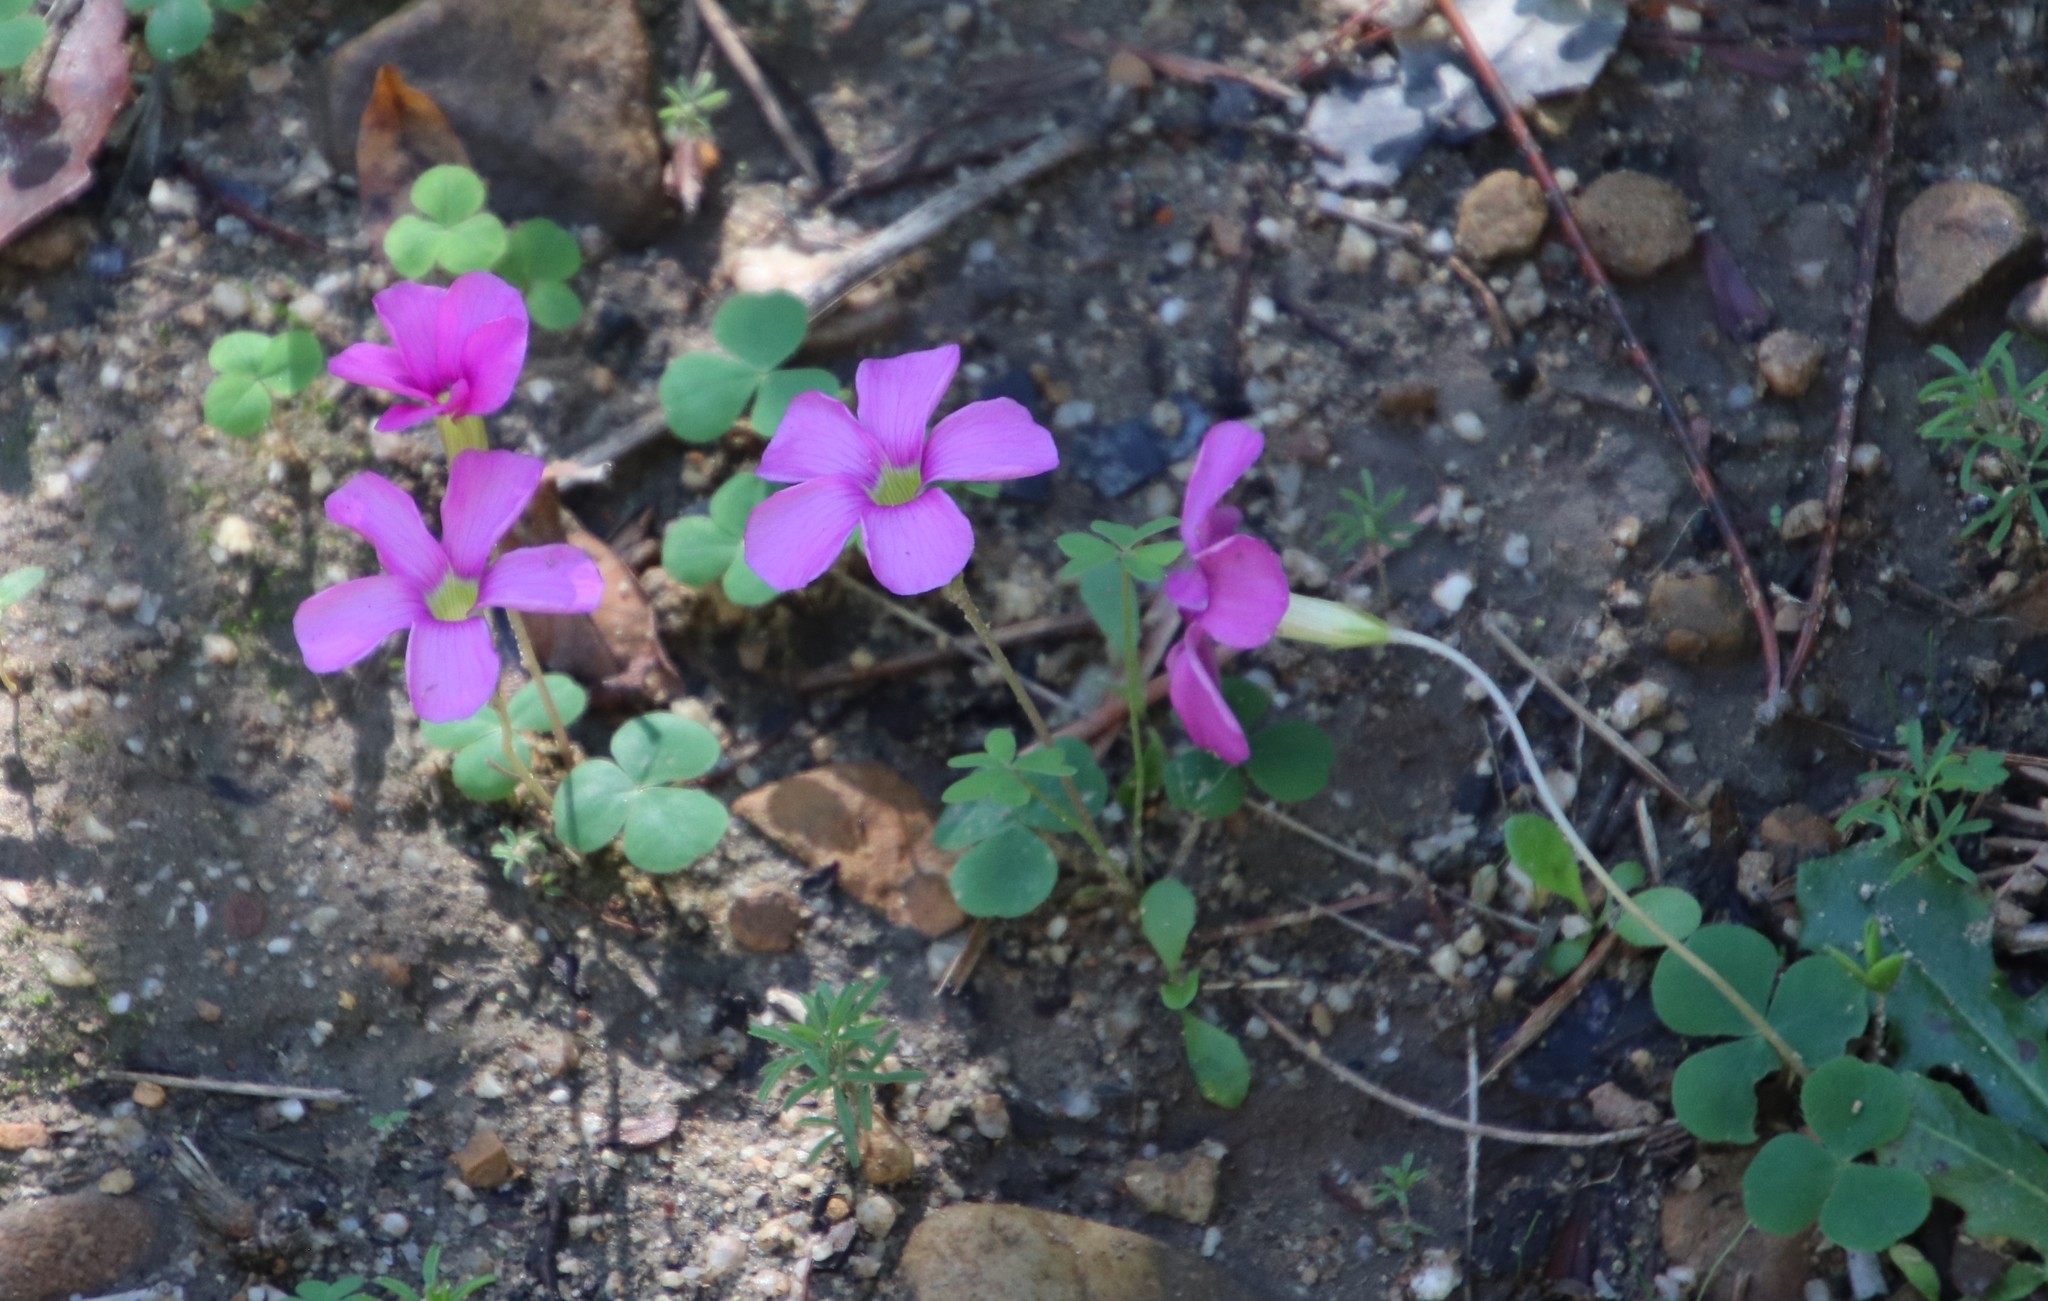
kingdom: Plantae
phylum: Tracheophyta
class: Magnoliopsida
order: Oxalidales
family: Oxalidaceae
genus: Oxalis
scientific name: Oxalis eckloniana
